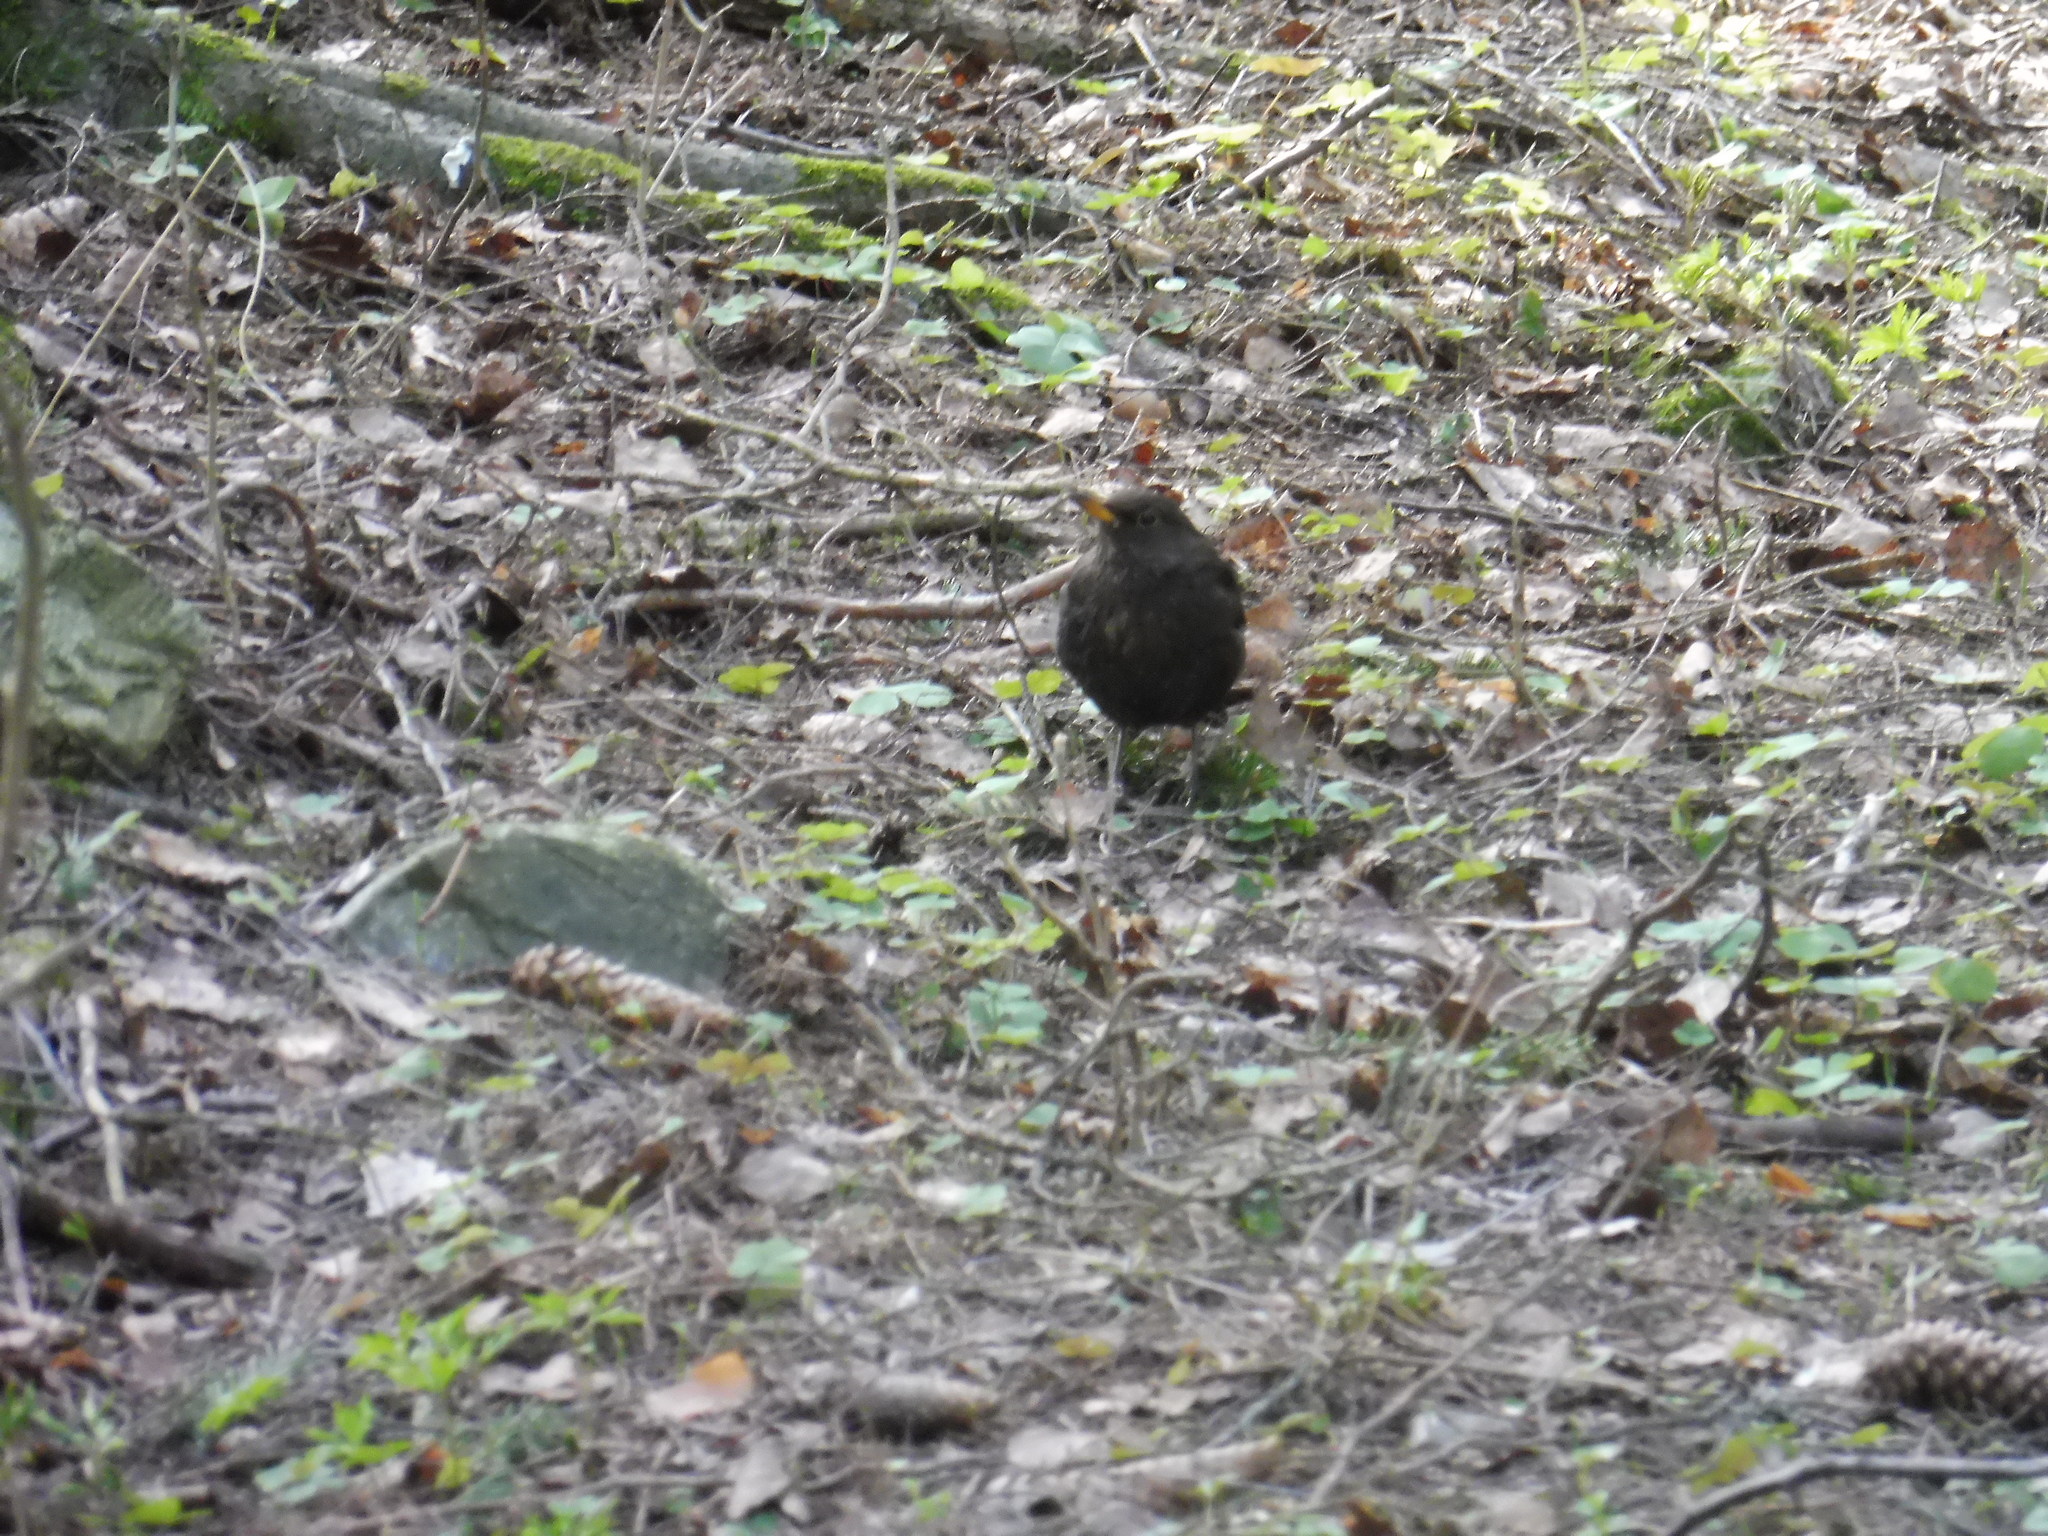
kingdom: Animalia
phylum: Chordata
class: Aves
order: Passeriformes
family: Turdidae
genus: Turdus
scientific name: Turdus merula
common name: Common blackbird
